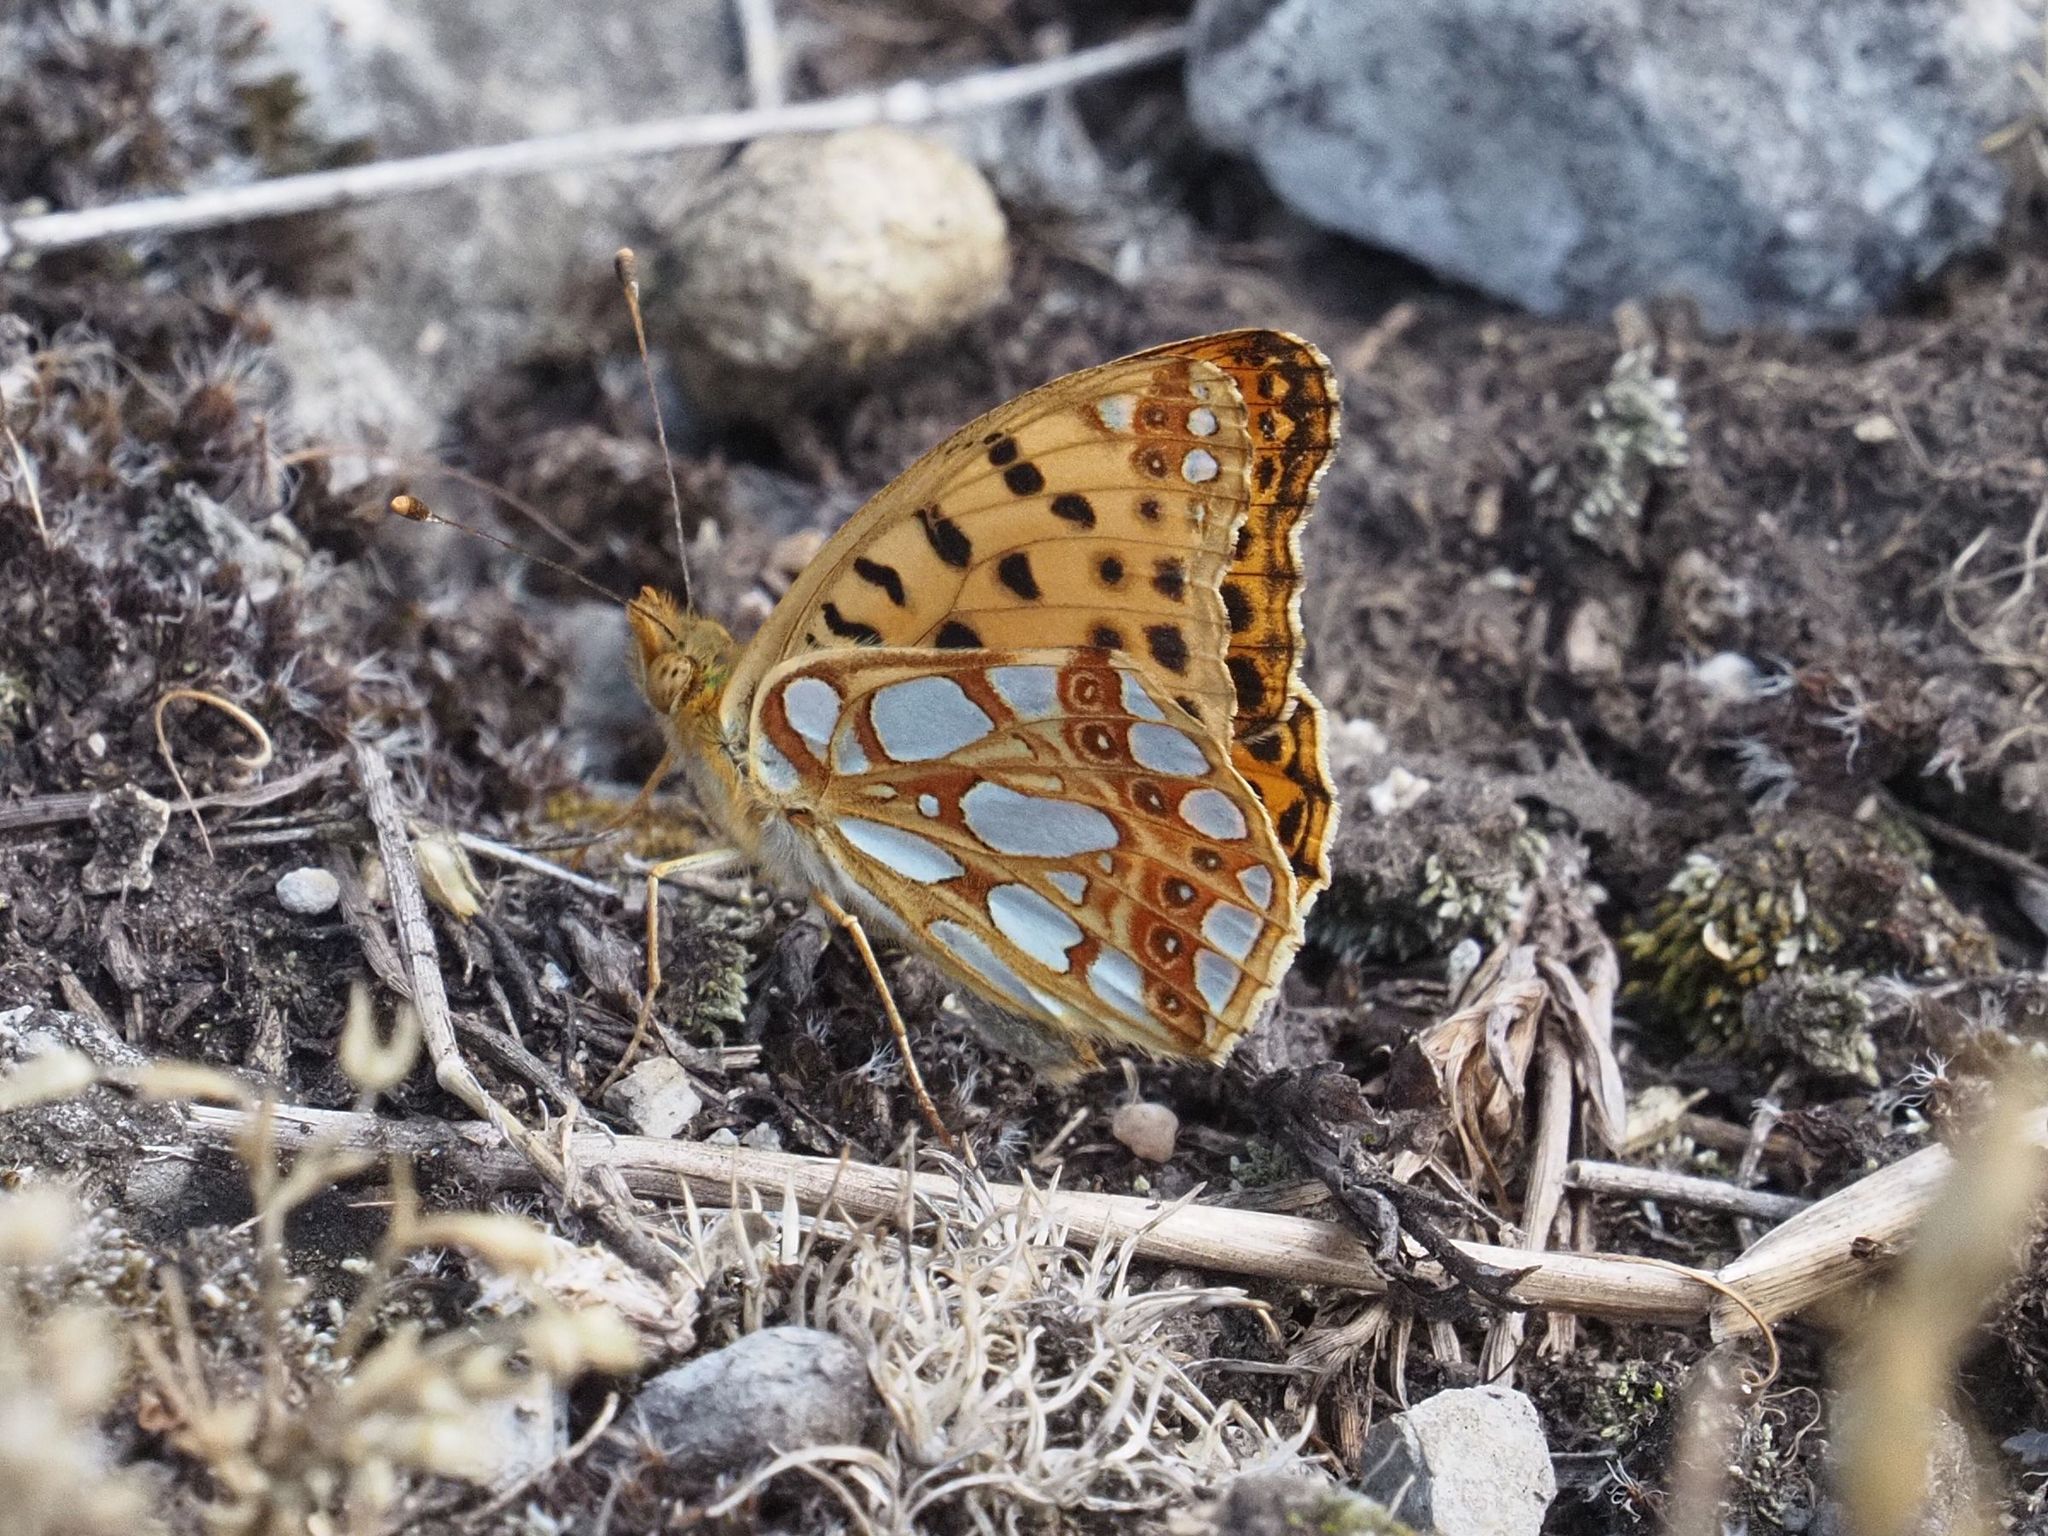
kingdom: Animalia
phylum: Arthropoda
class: Insecta
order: Lepidoptera
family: Nymphalidae
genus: Issoria
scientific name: Issoria lathonia
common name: Queen of spain fritillary
